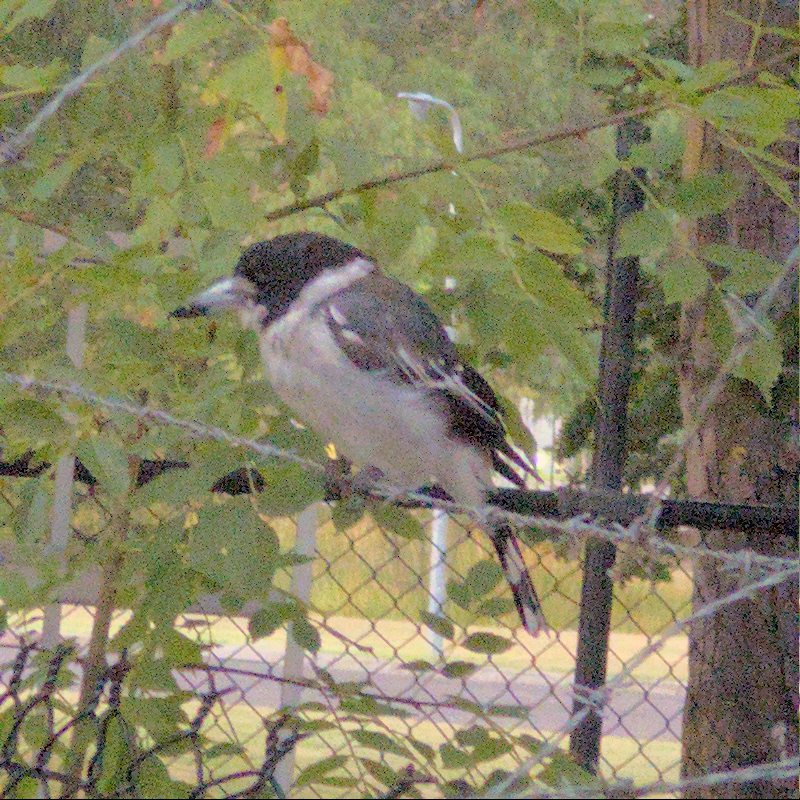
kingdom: Animalia
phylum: Chordata
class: Aves
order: Passeriformes
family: Cracticidae
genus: Cracticus
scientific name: Cracticus torquatus
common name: Grey butcherbird
